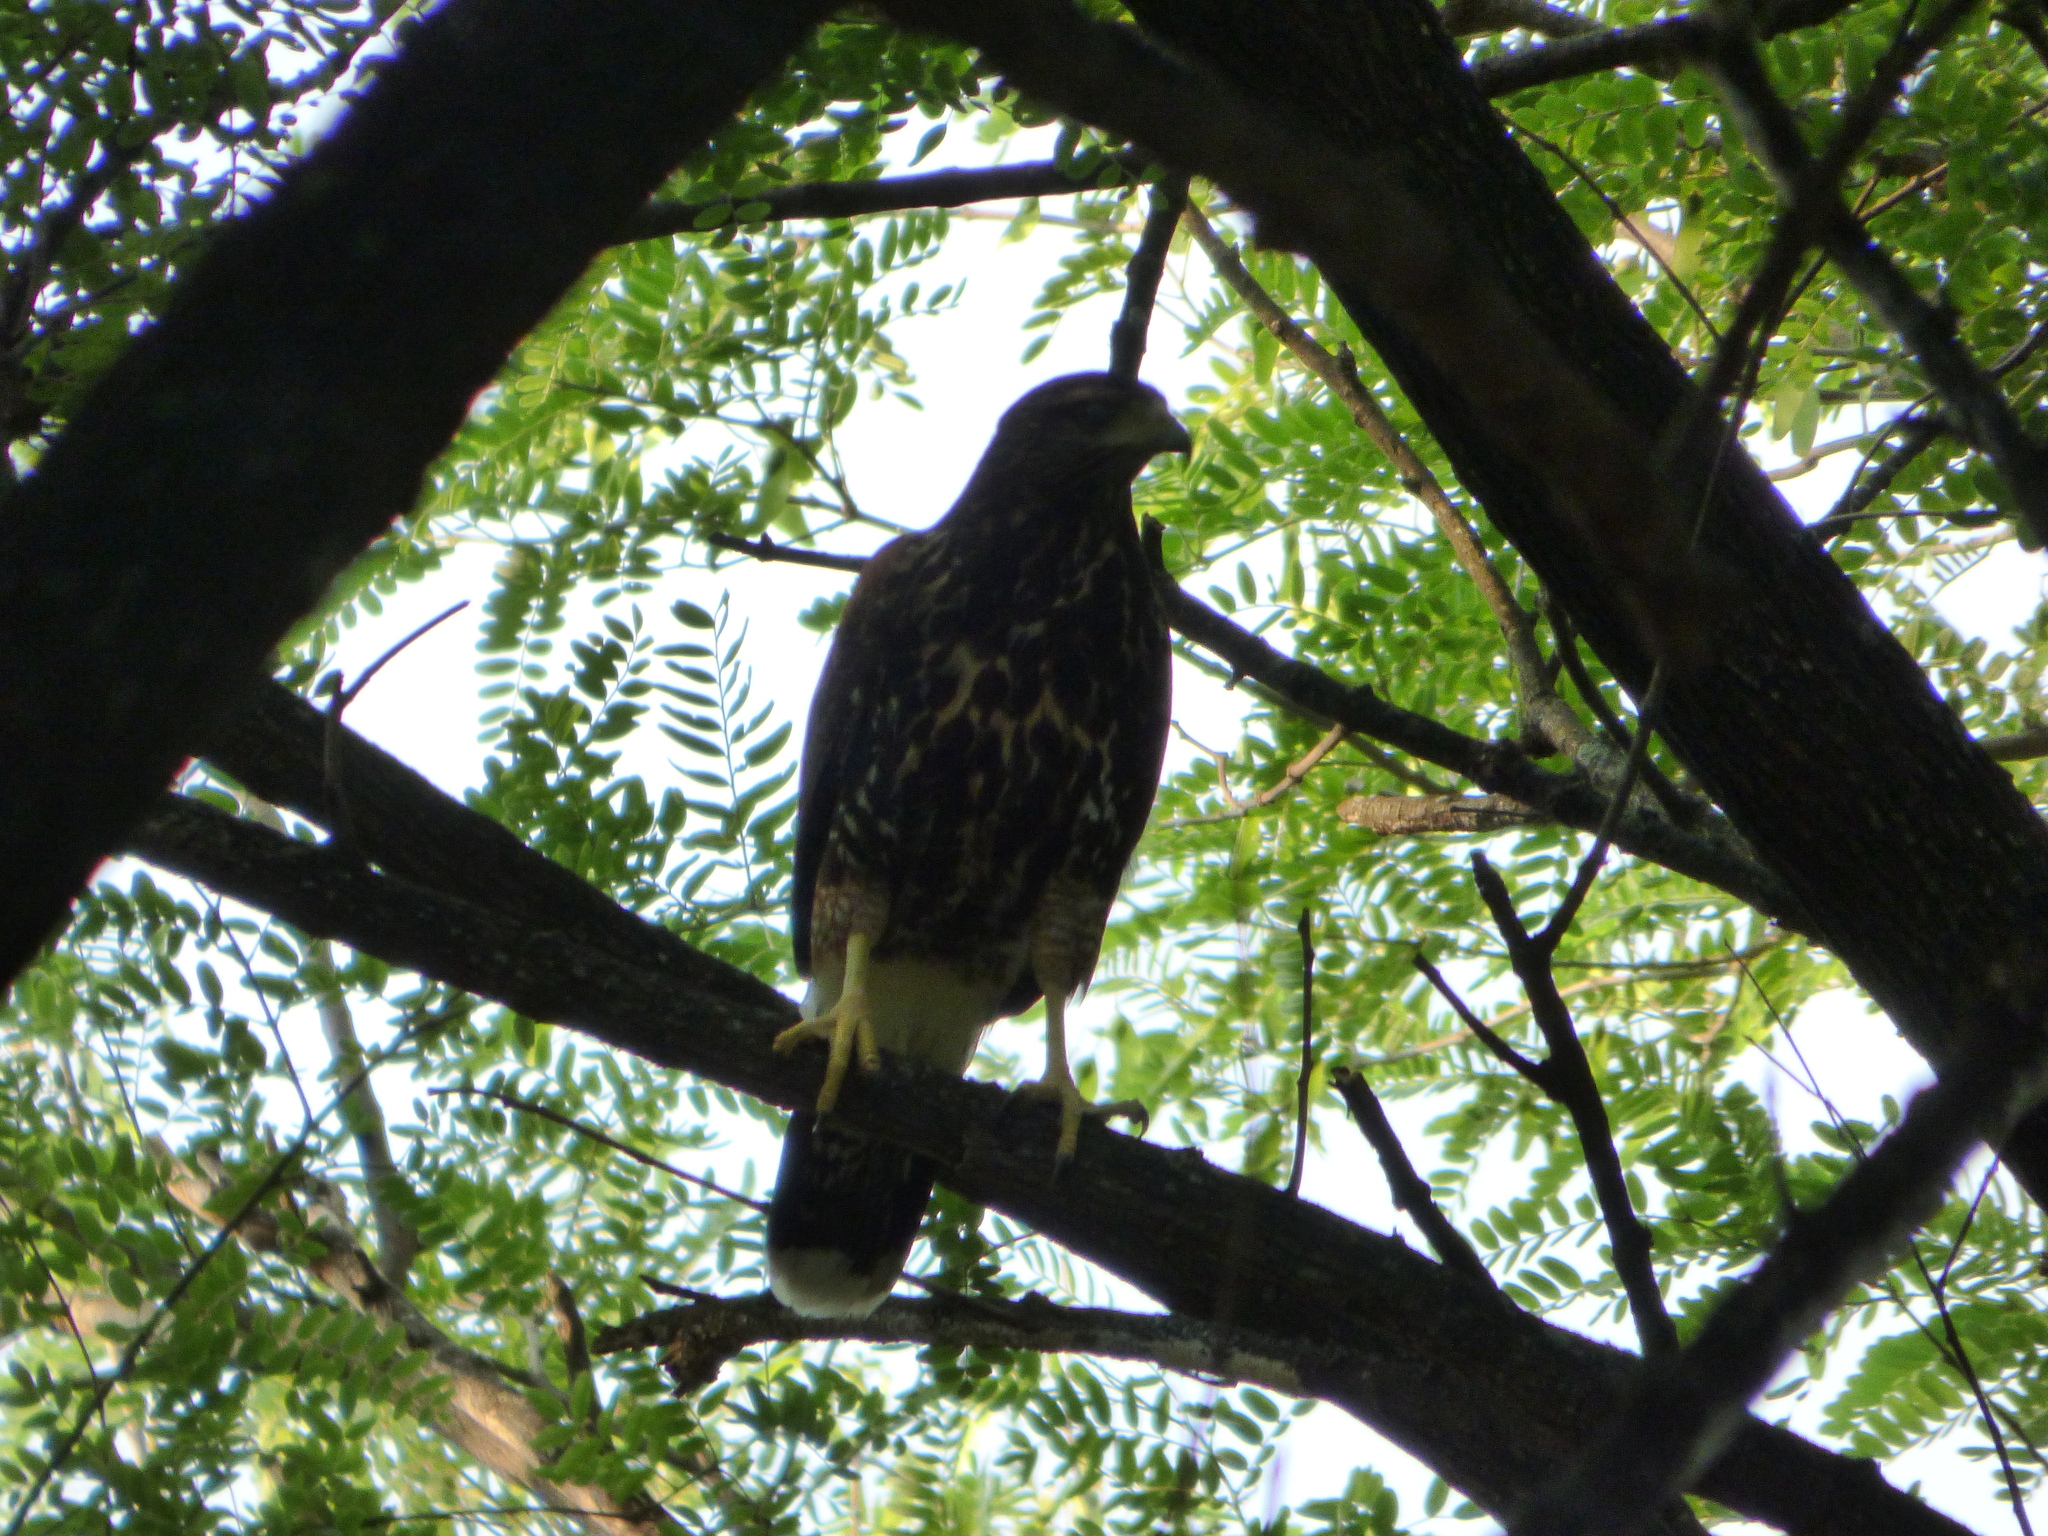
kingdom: Animalia
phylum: Chordata
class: Aves
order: Accipitriformes
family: Accipitridae
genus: Parabuteo
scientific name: Parabuteo unicinctus
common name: Harris's hawk
